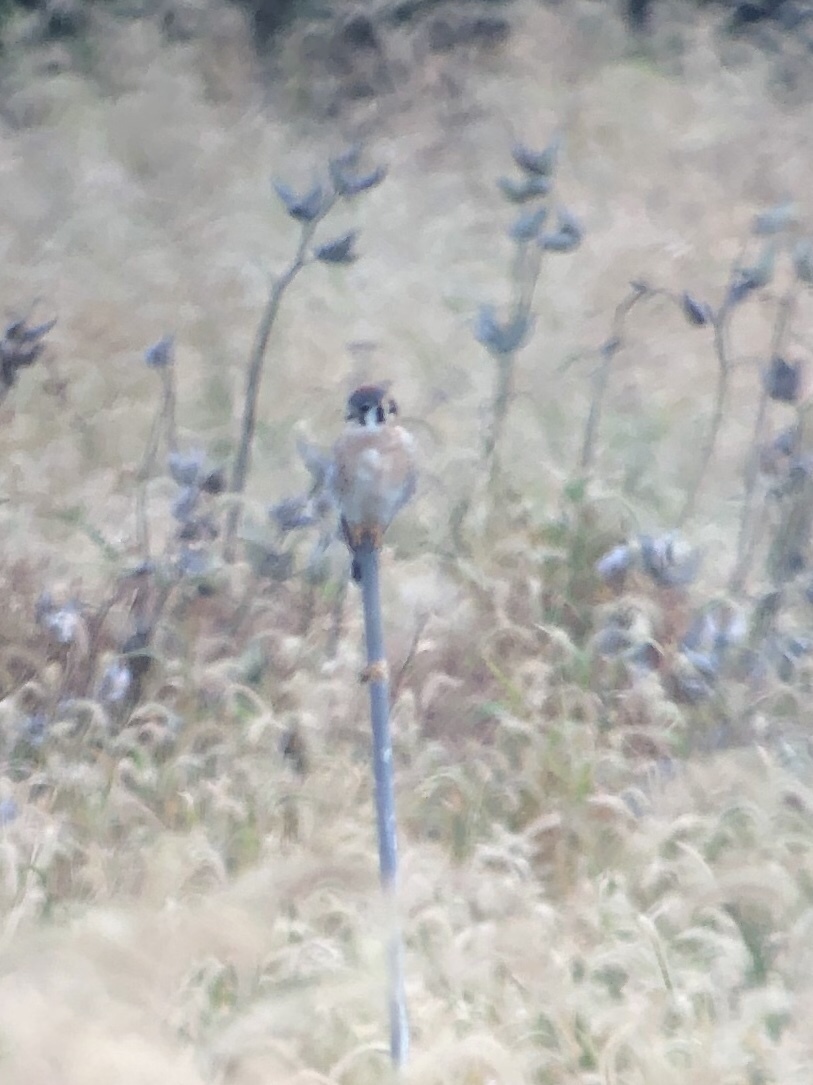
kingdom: Animalia
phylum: Chordata
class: Aves
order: Falconiformes
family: Falconidae
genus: Falco
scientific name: Falco sparverius
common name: American kestrel
